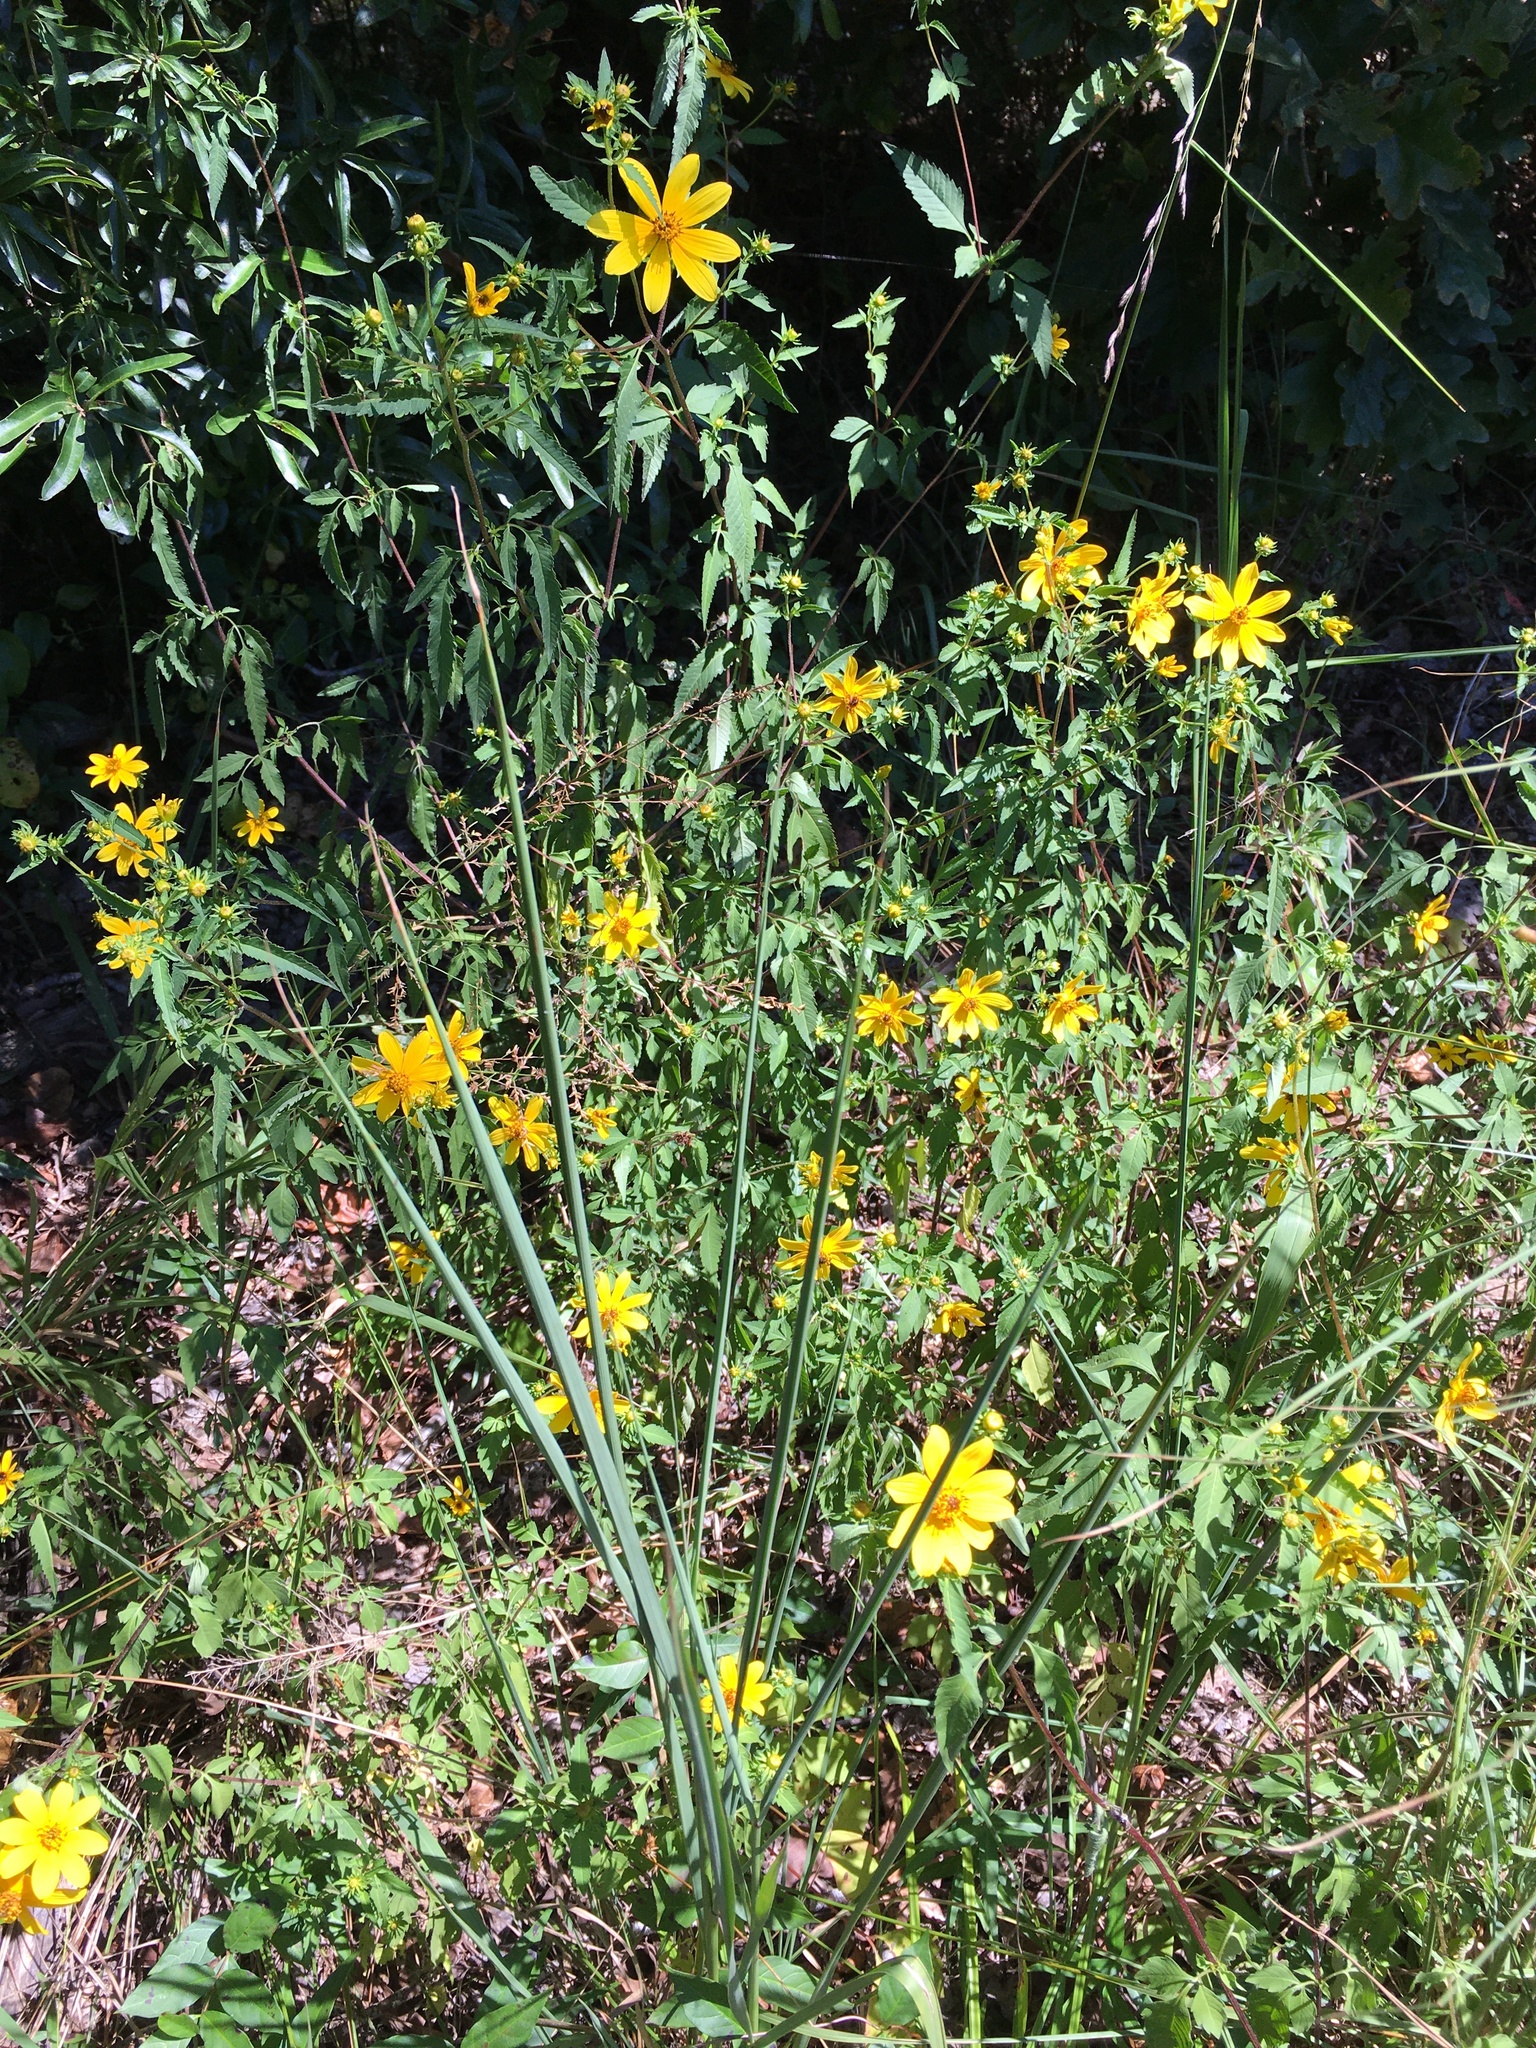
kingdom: Plantae
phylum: Tracheophyta
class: Magnoliopsida
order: Asterales
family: Asteraceae
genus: Bidens
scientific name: Bidens aristosa
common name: Western tickseed
